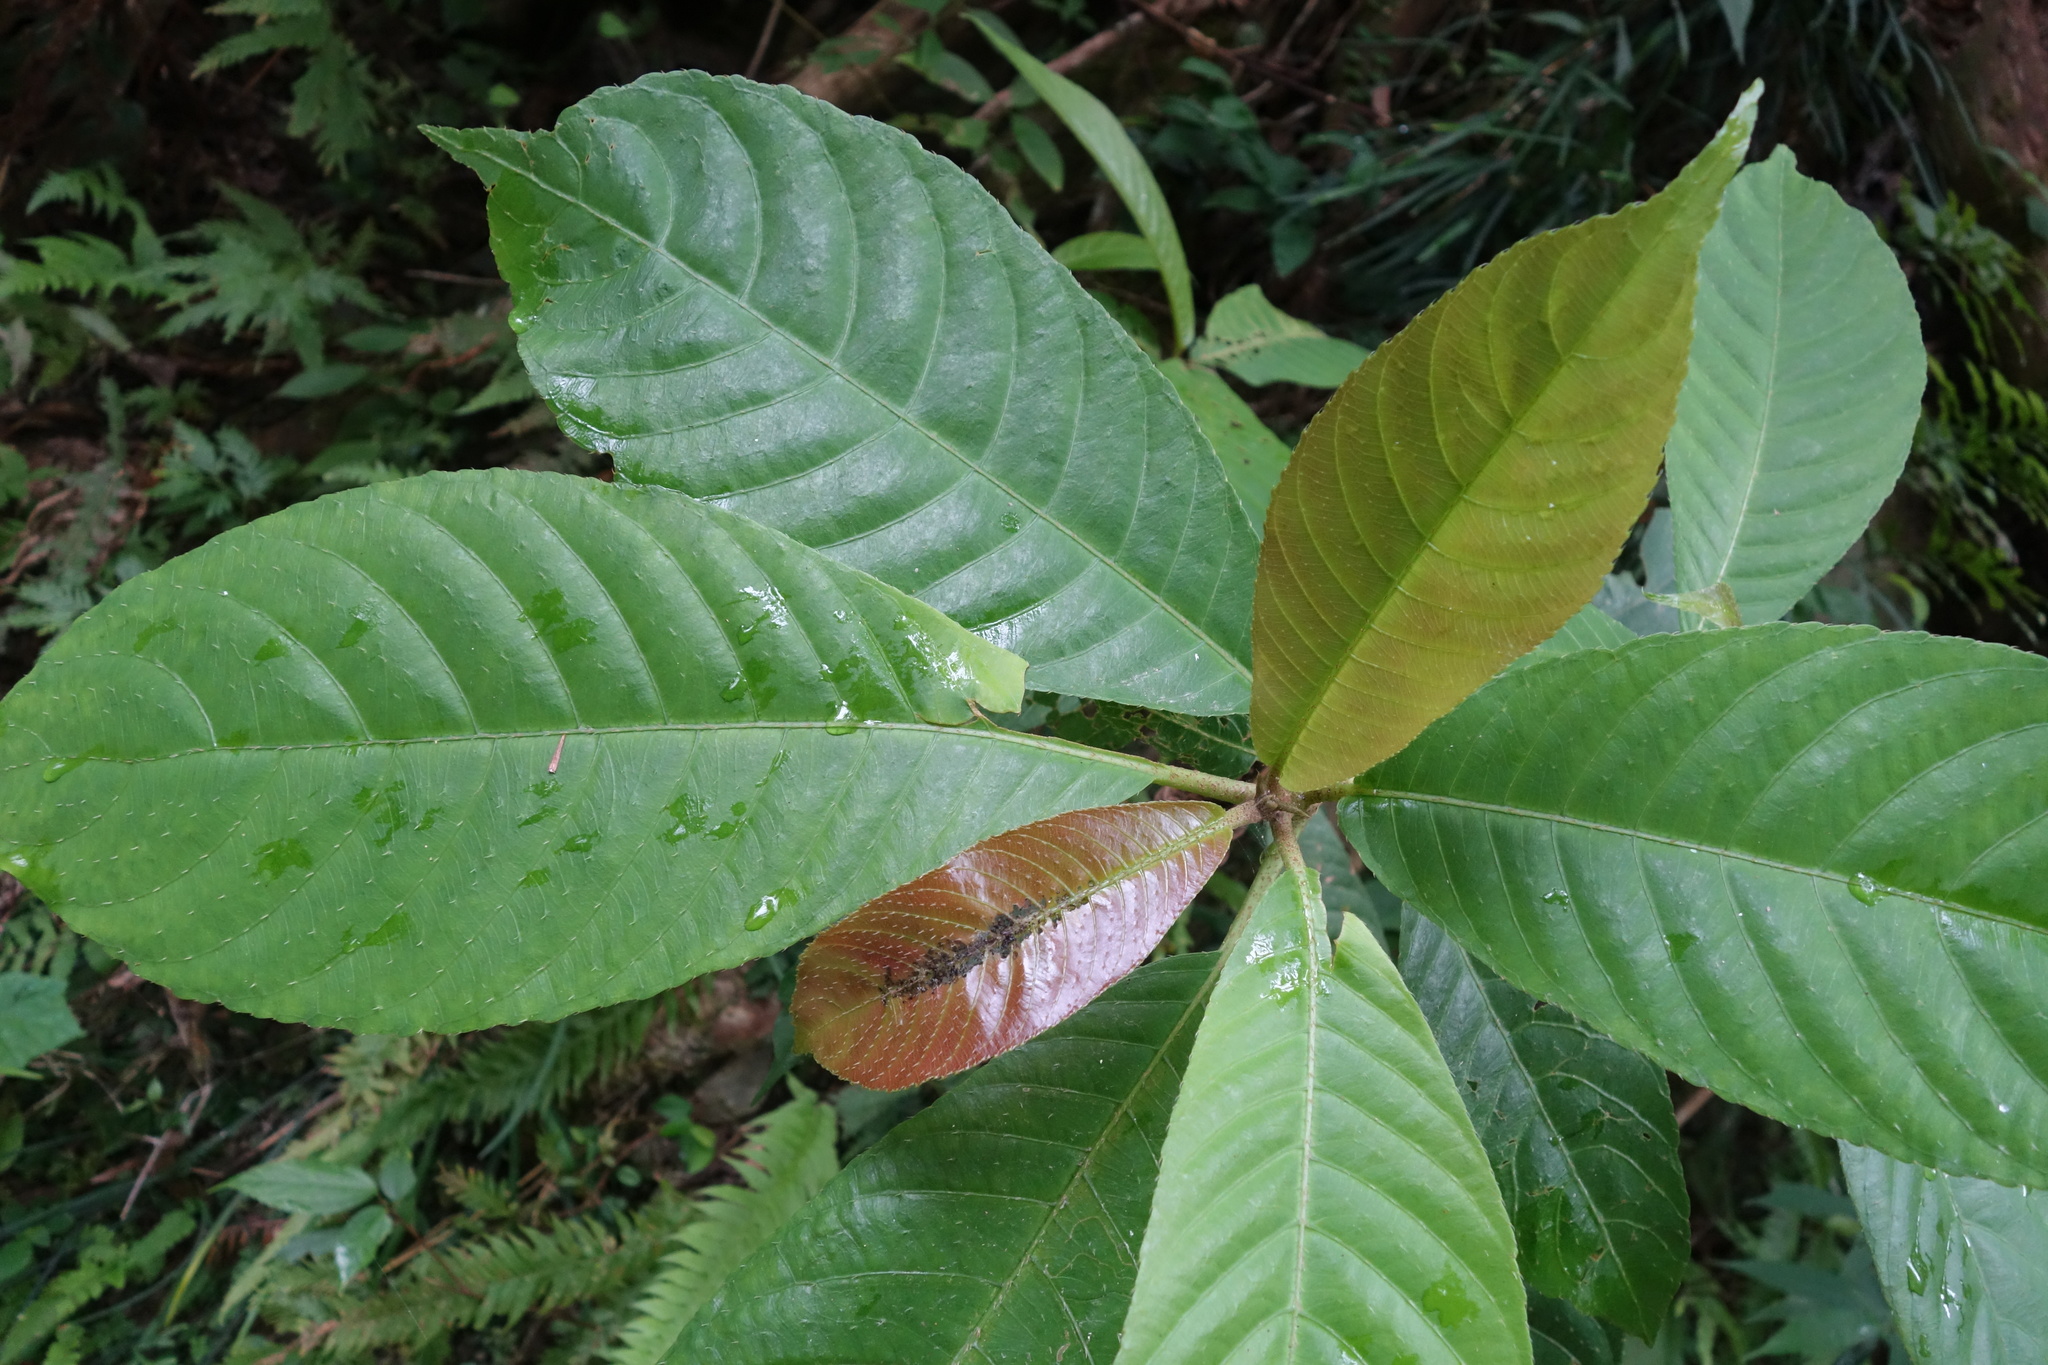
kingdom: Plantae
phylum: Tracheophyta
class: Magnoliopsida
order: Ericales
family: Actinidiaceae
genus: Saurauia
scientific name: Saurauia tristyla
